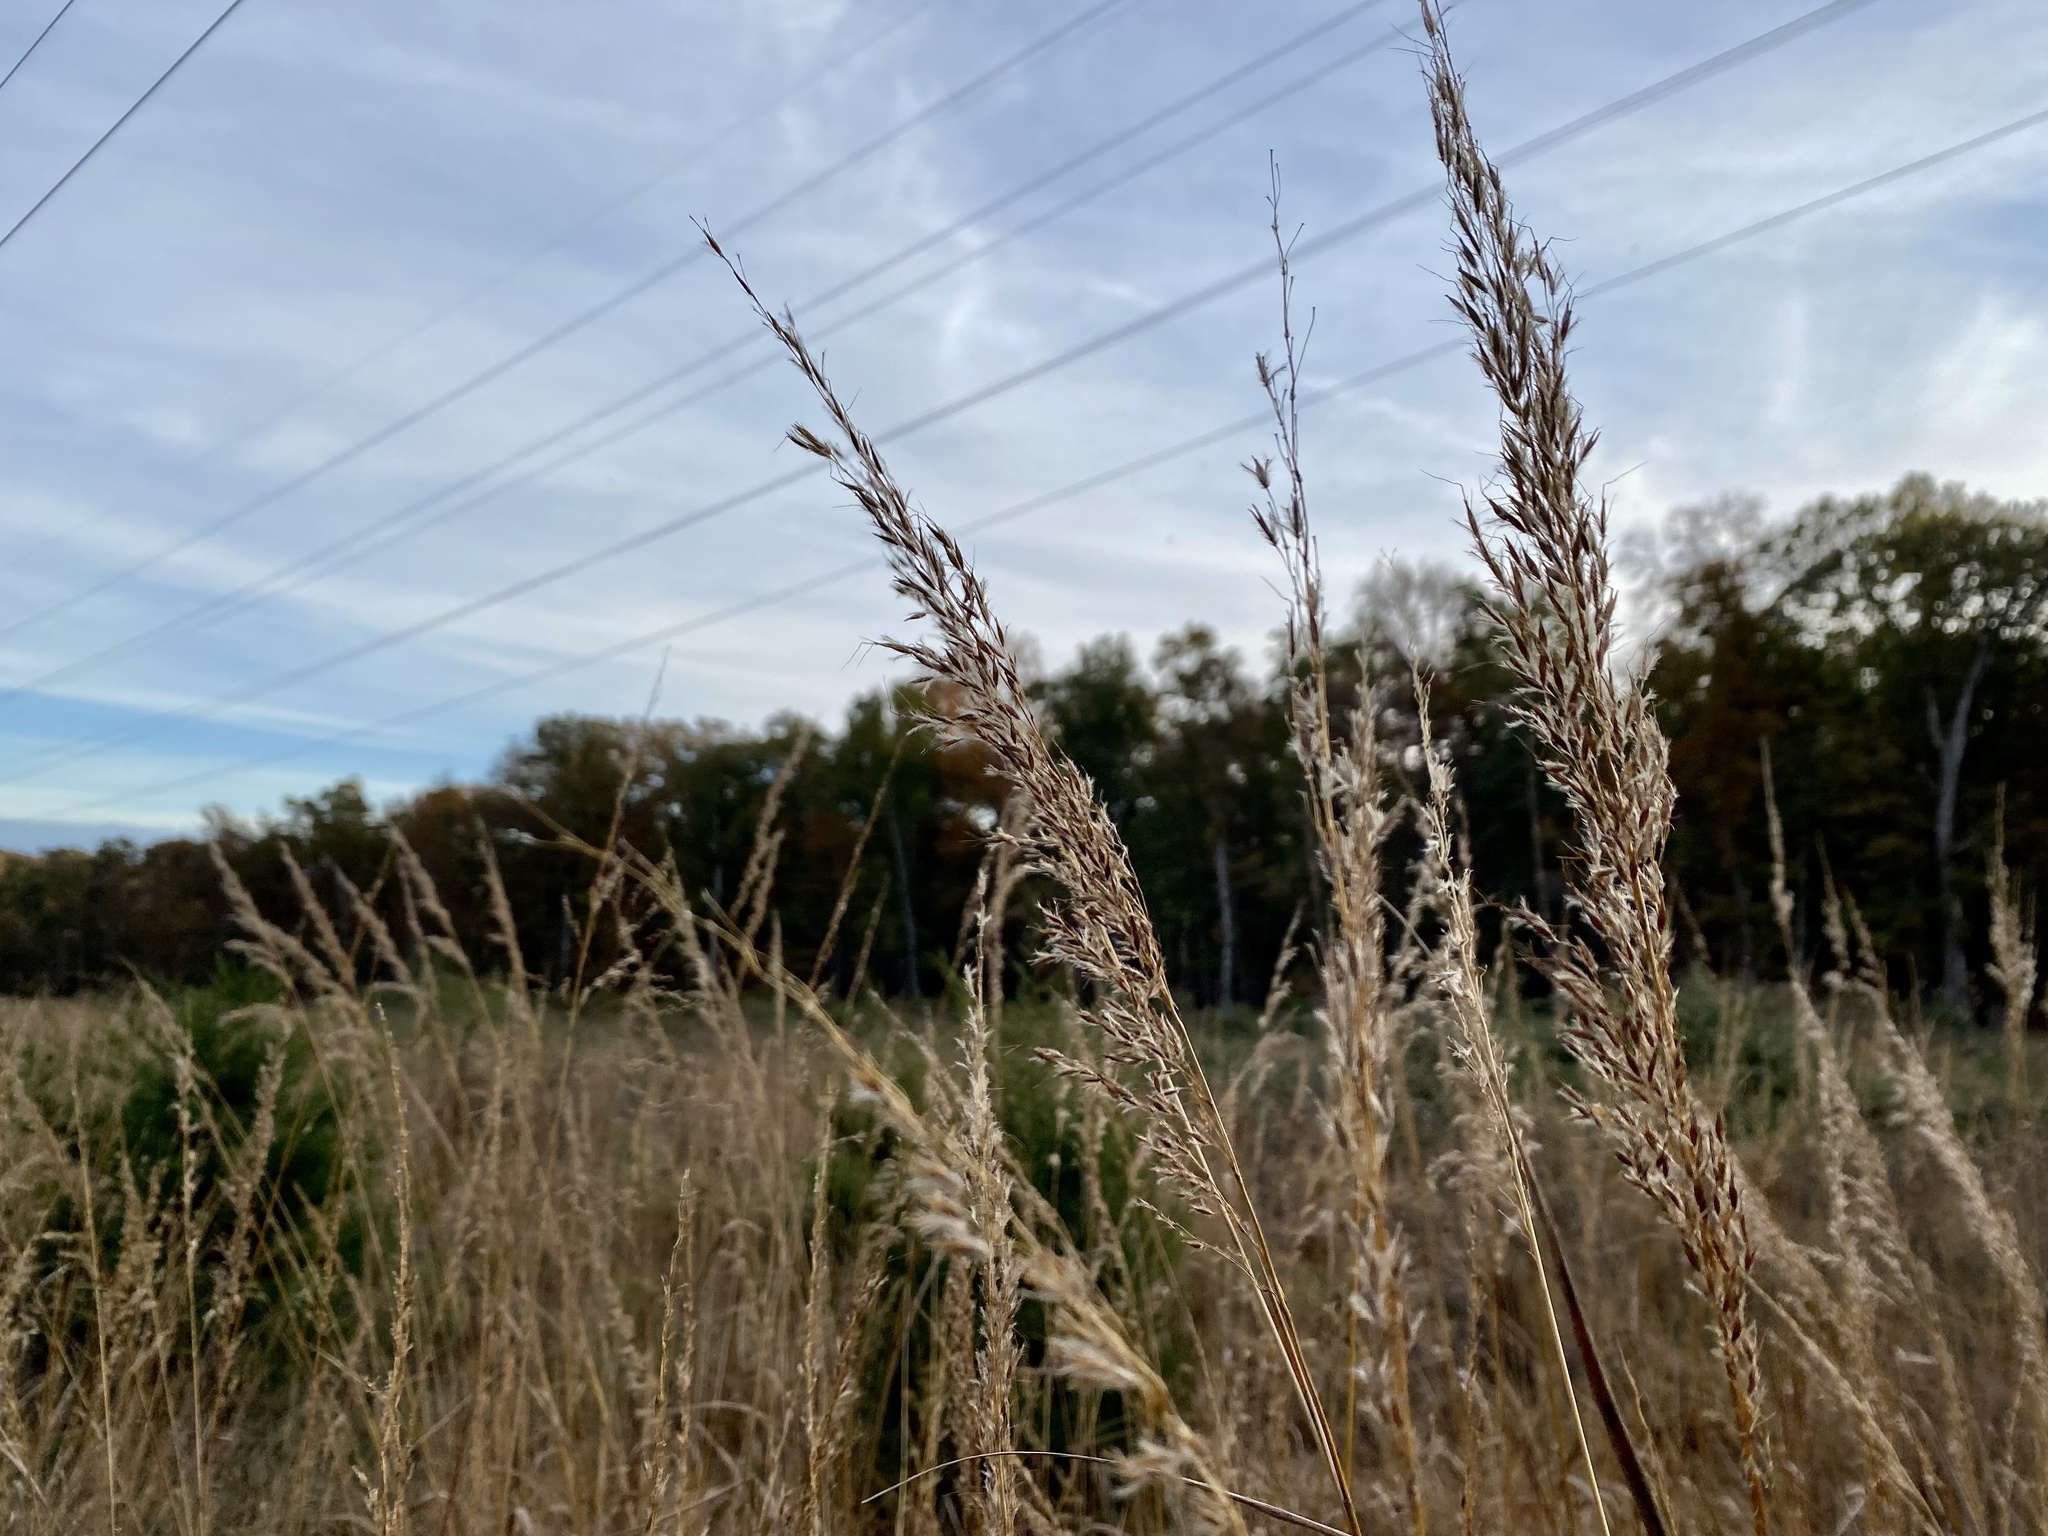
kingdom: Plantae
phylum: Tracheophyta
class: Liliopsida
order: Poales
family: Poaceae
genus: Sorghastrum
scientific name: Sorghastrum nutans
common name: Indian grass
